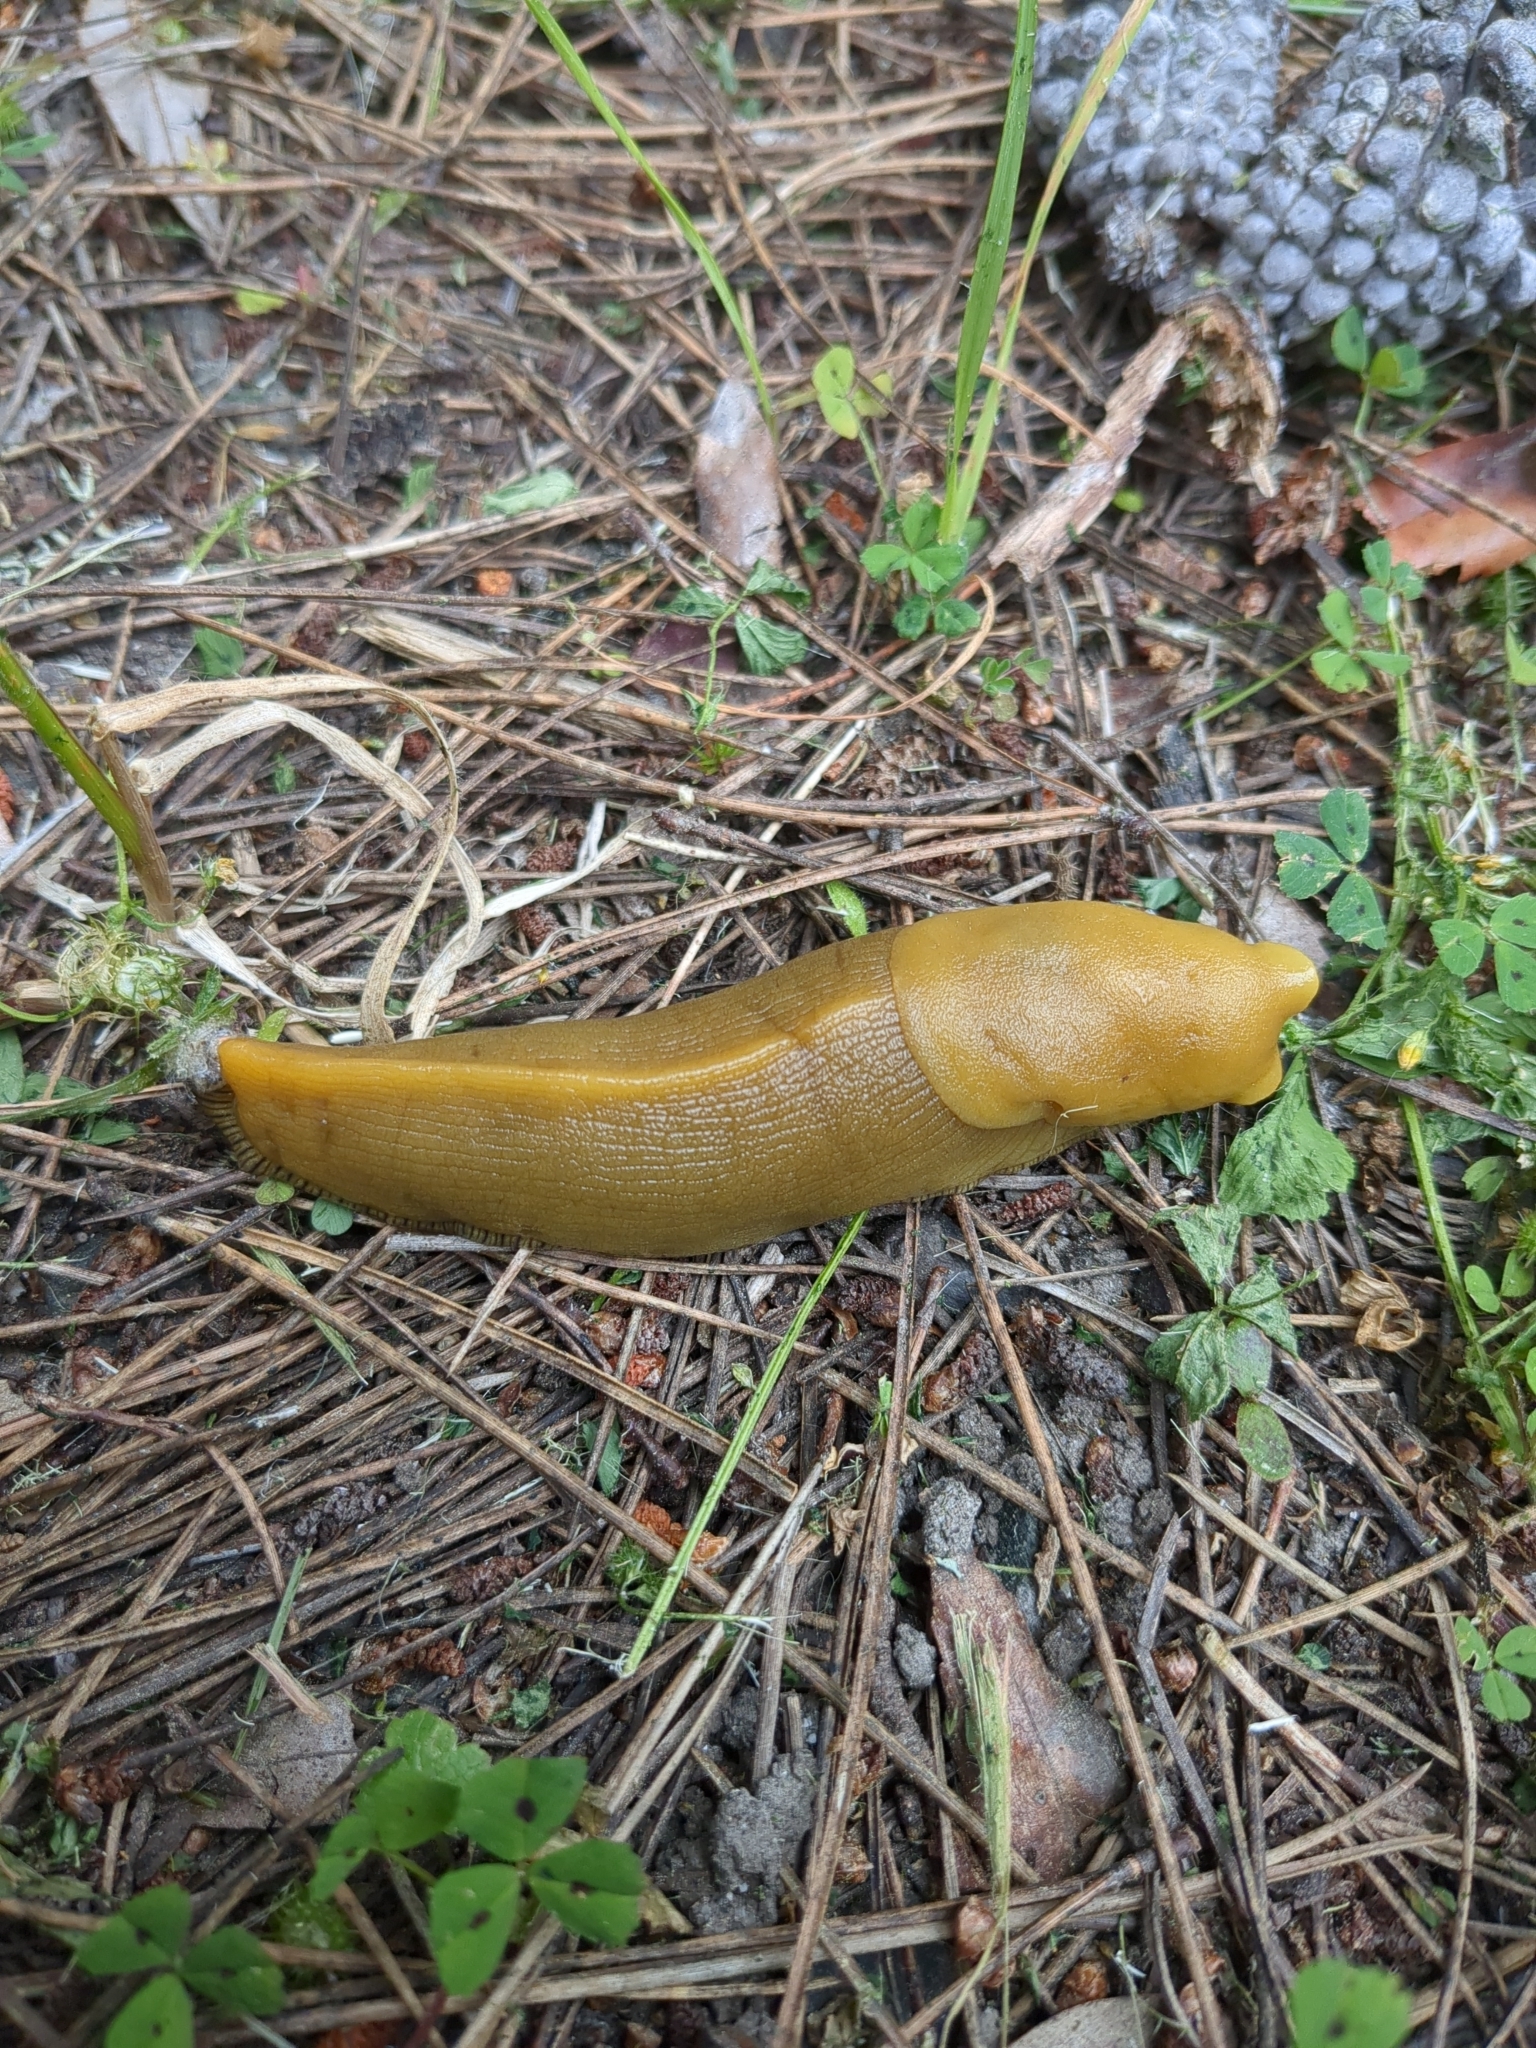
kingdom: Animalia
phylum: Mollusca
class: Gastropoda
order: Stylommatophora
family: Ariolimacidae
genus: Ariolimax
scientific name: Ariolimax buttoni
